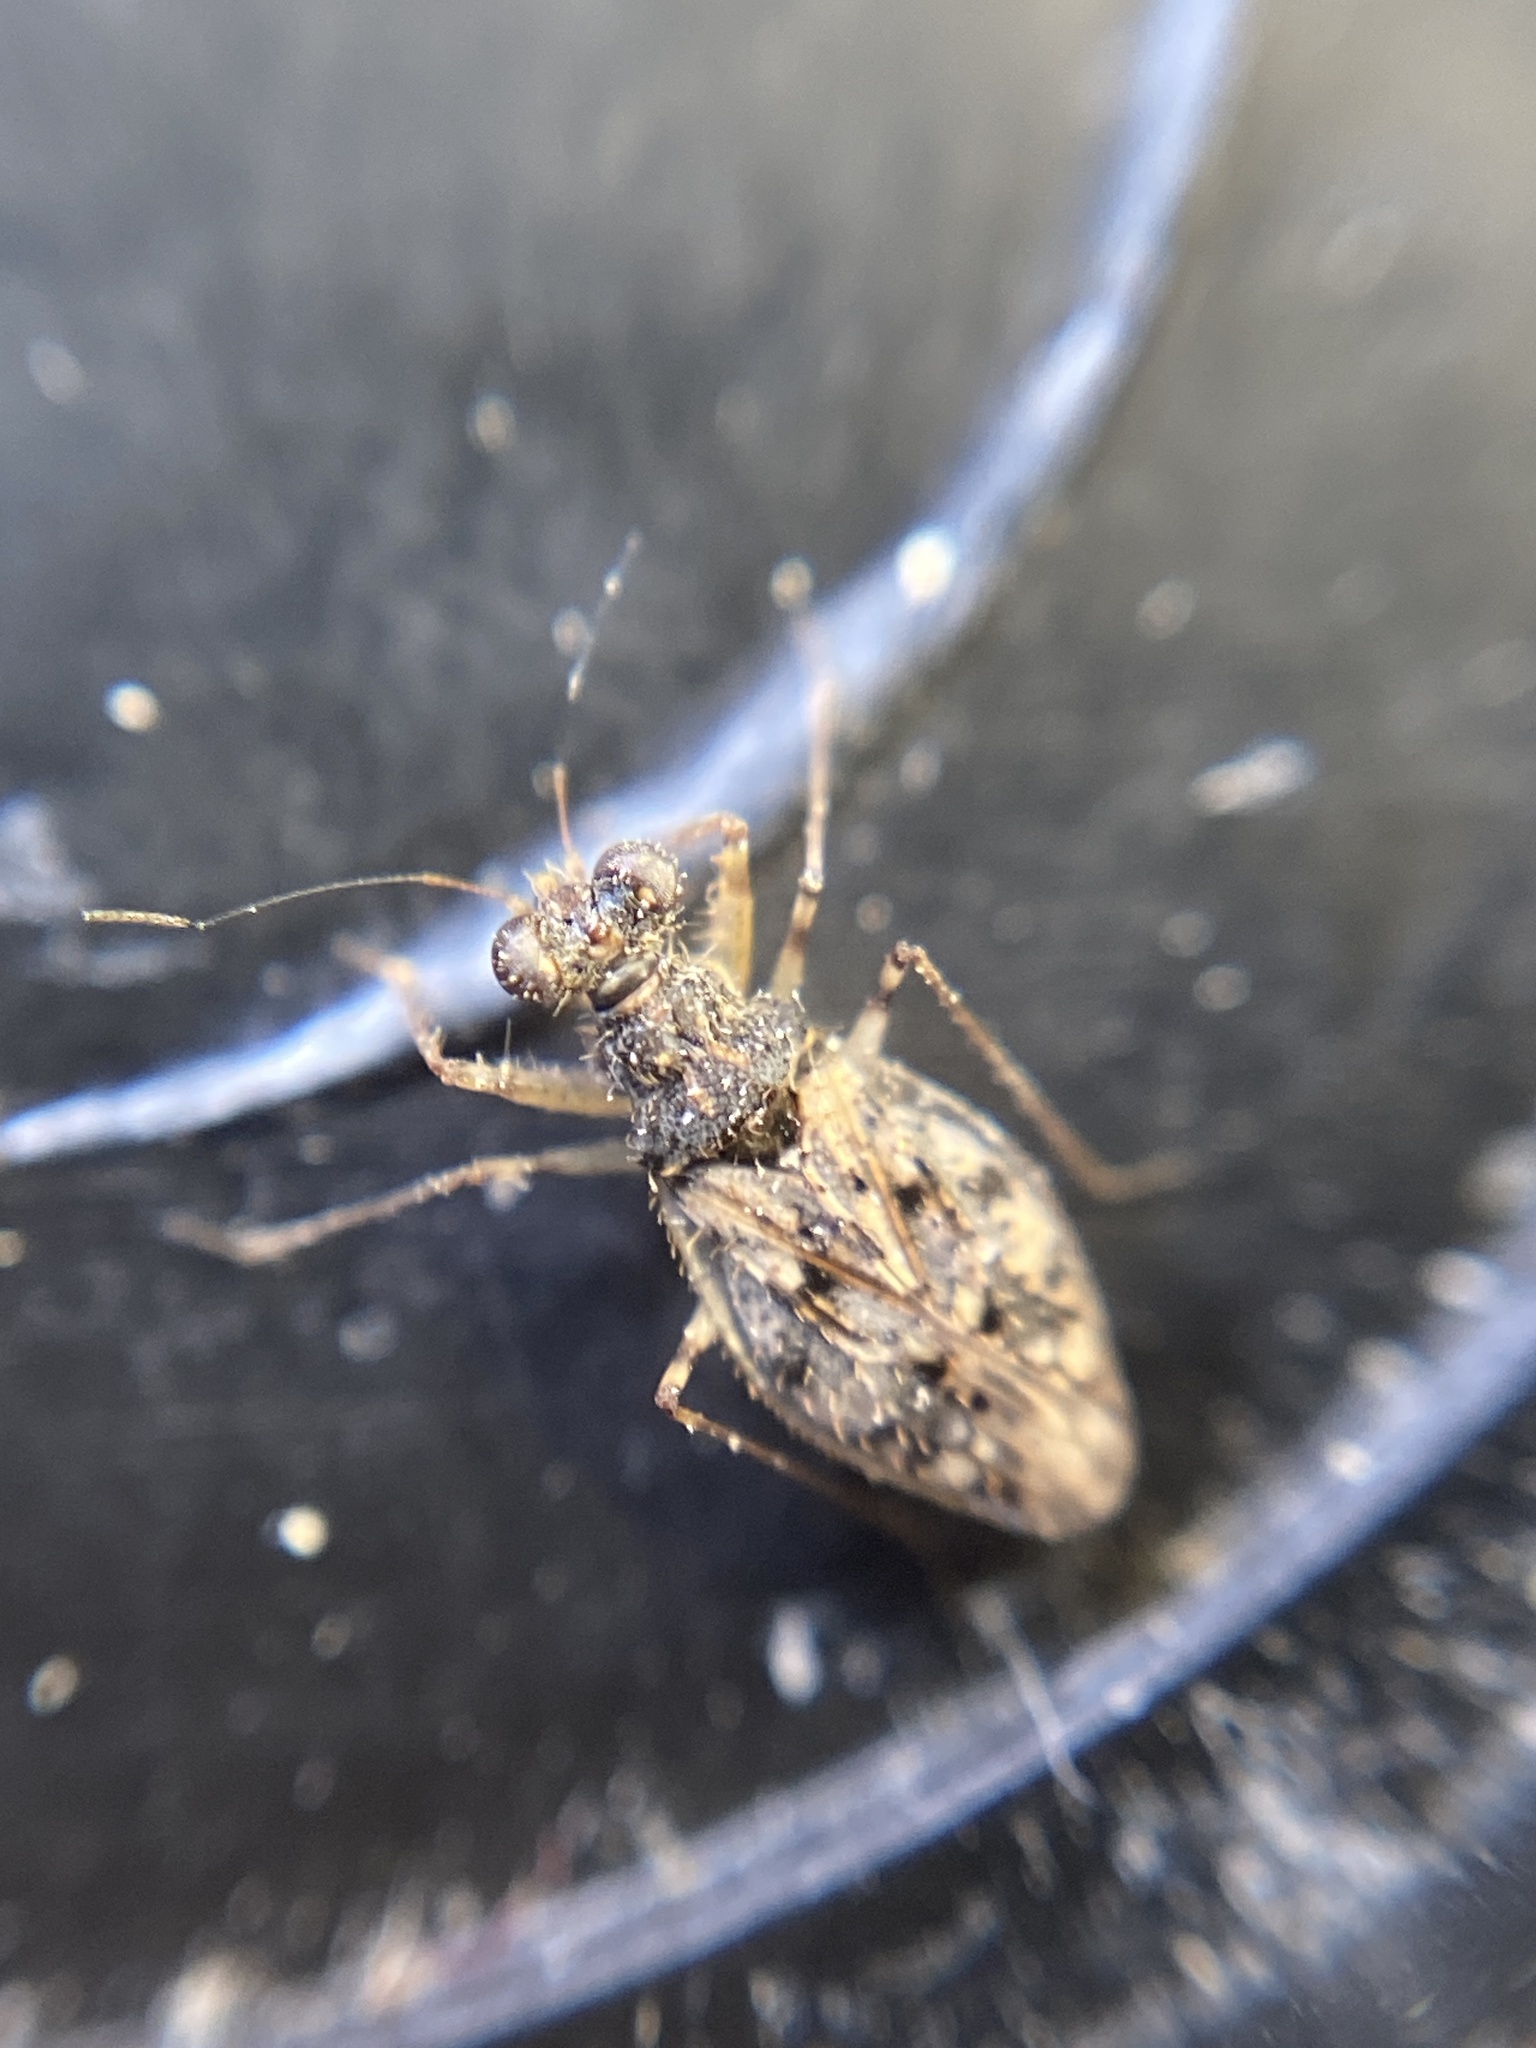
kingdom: Animalia
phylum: Arthropoda
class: Insecta
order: Hemiptera
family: Leptopodidae
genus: Leptopus
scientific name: Leptopus marmoratus
